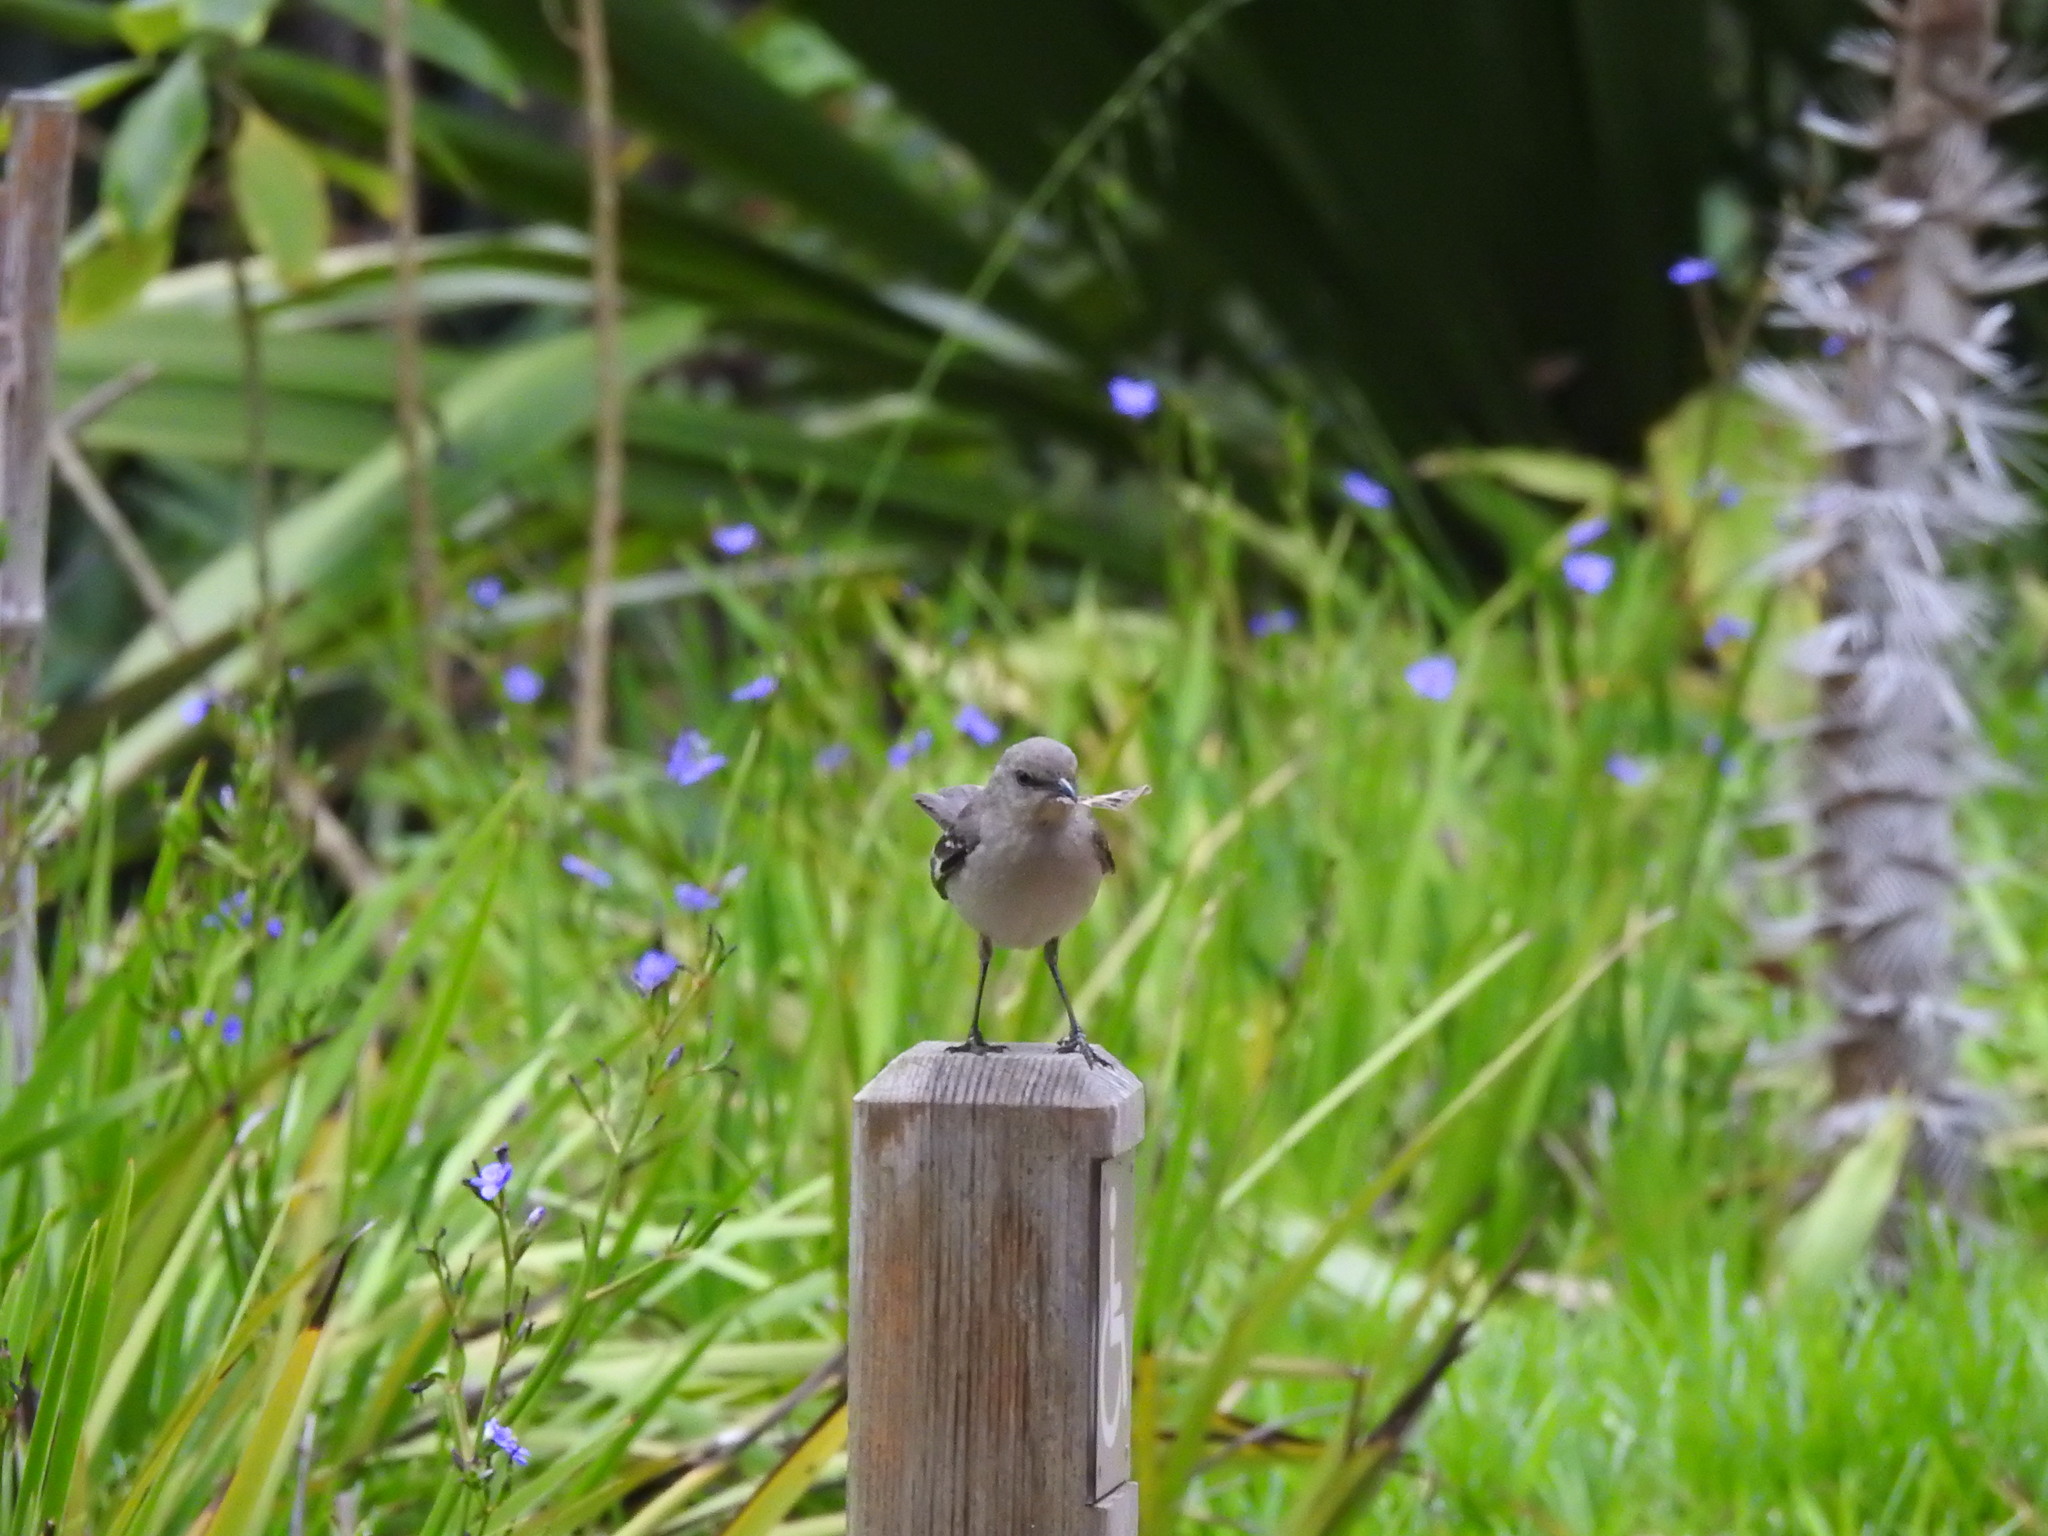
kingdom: Animalia
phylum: Chordata
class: Aves
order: Passeriformes
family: Mimidae
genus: Mimus
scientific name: Mimus polyglottos
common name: Northern mockingbird
